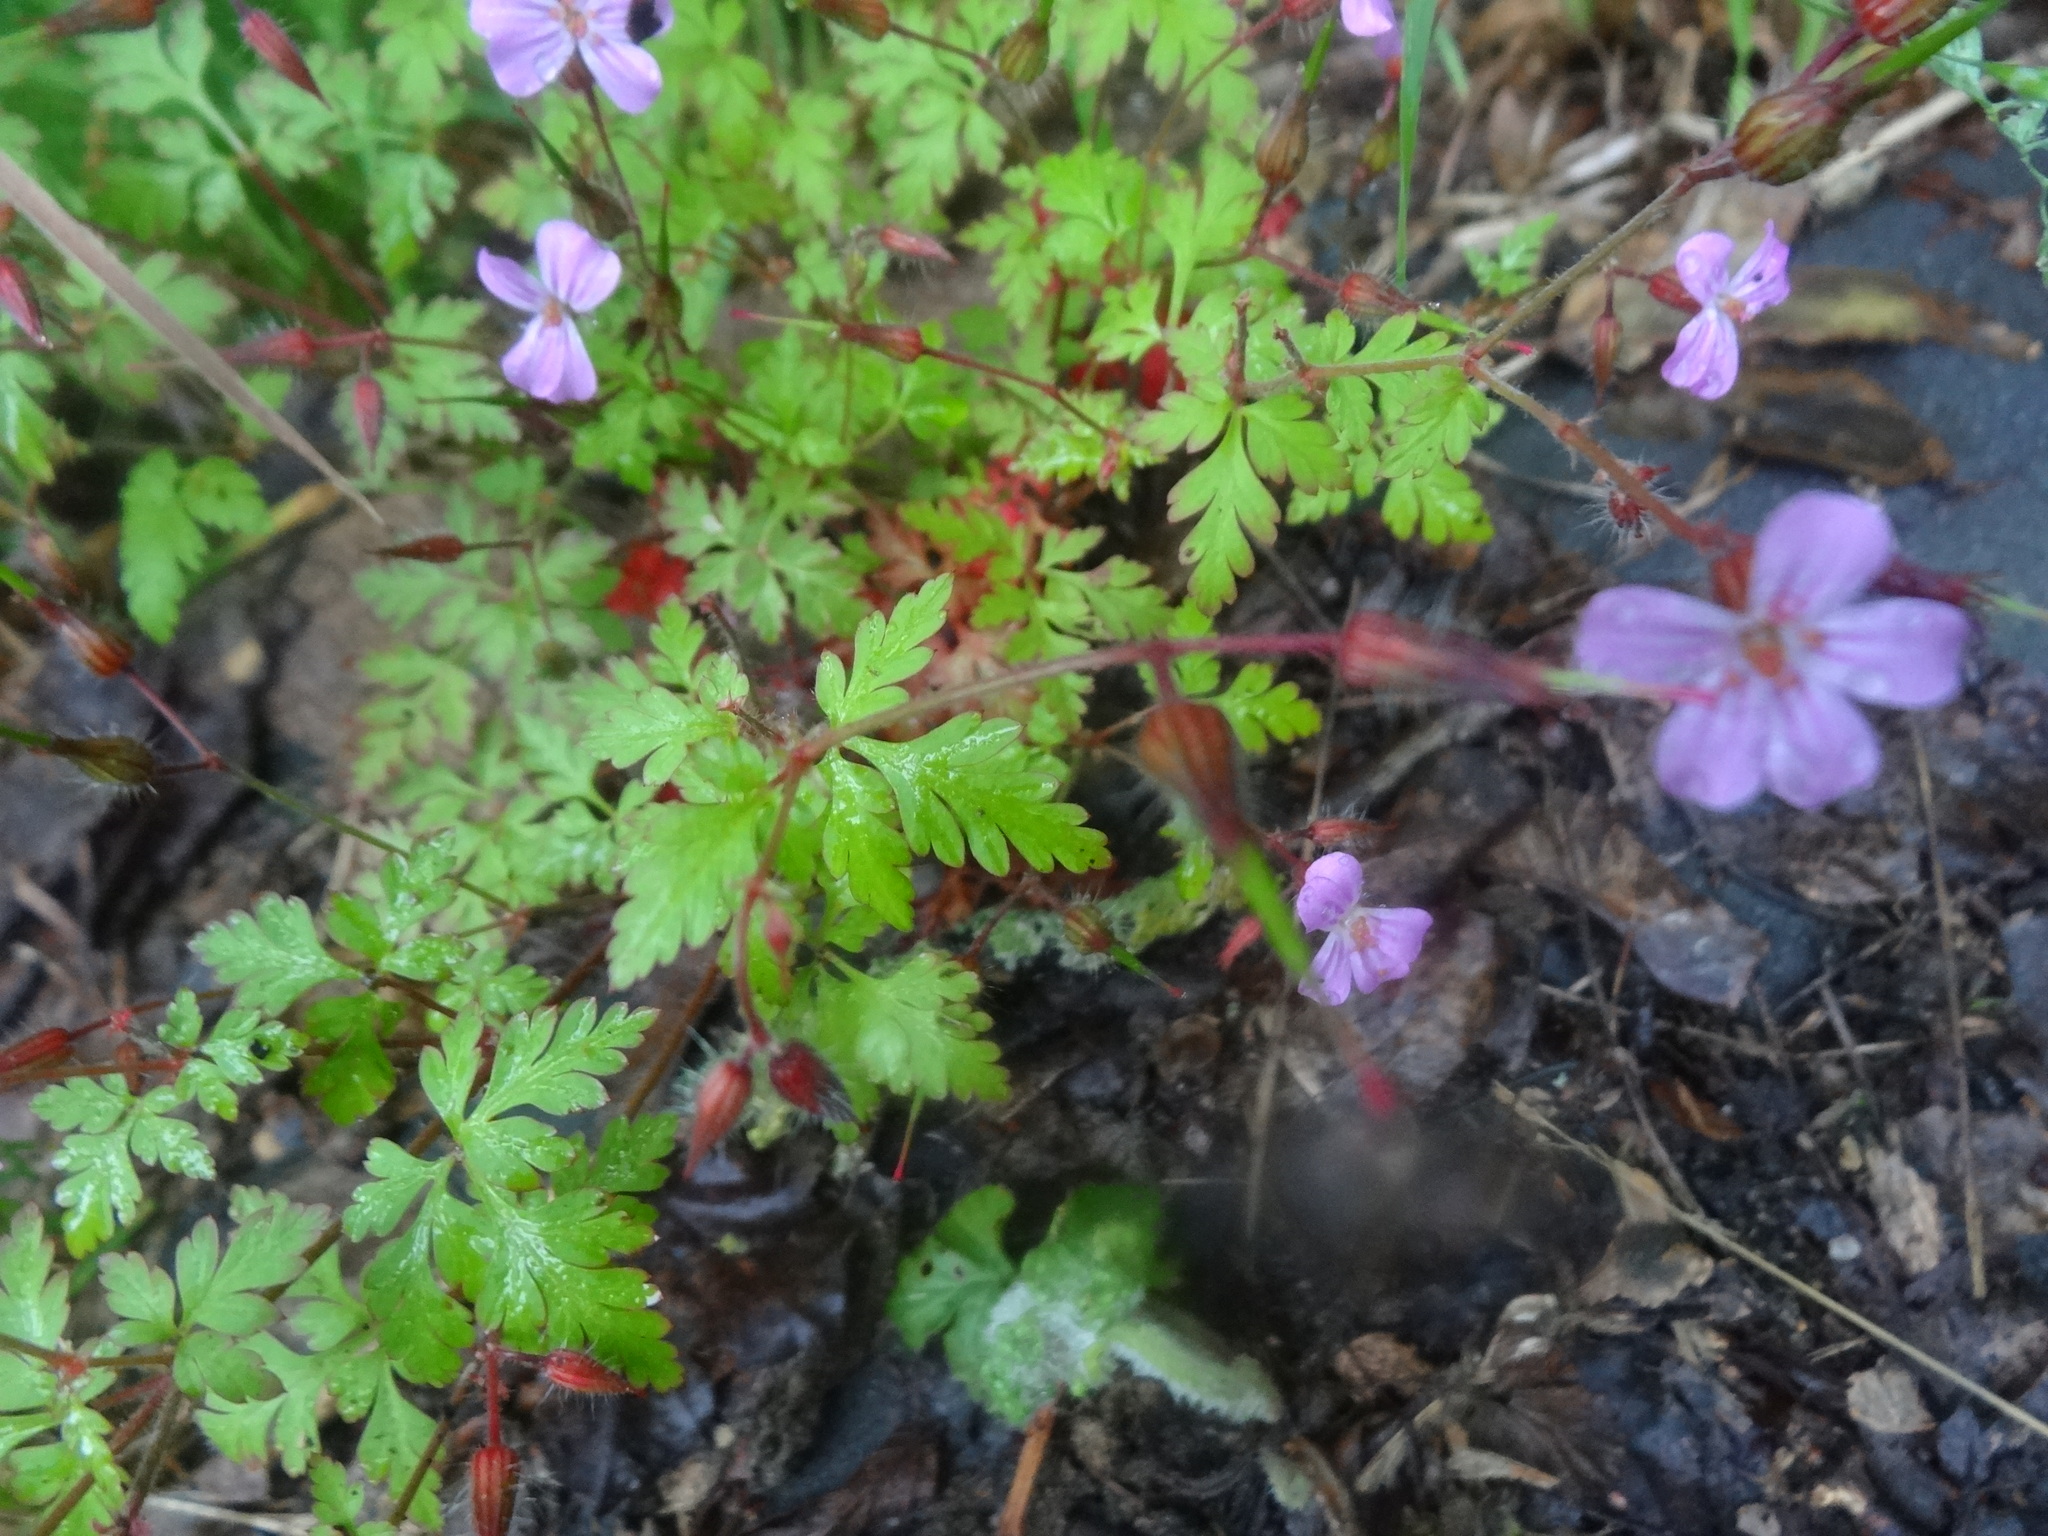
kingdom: Plantae
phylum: Tracheophyta
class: Magnoliopsida
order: Geraniales
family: Geraniaceae
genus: Geranium
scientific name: Geranium robertianum
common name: Herb-robert
